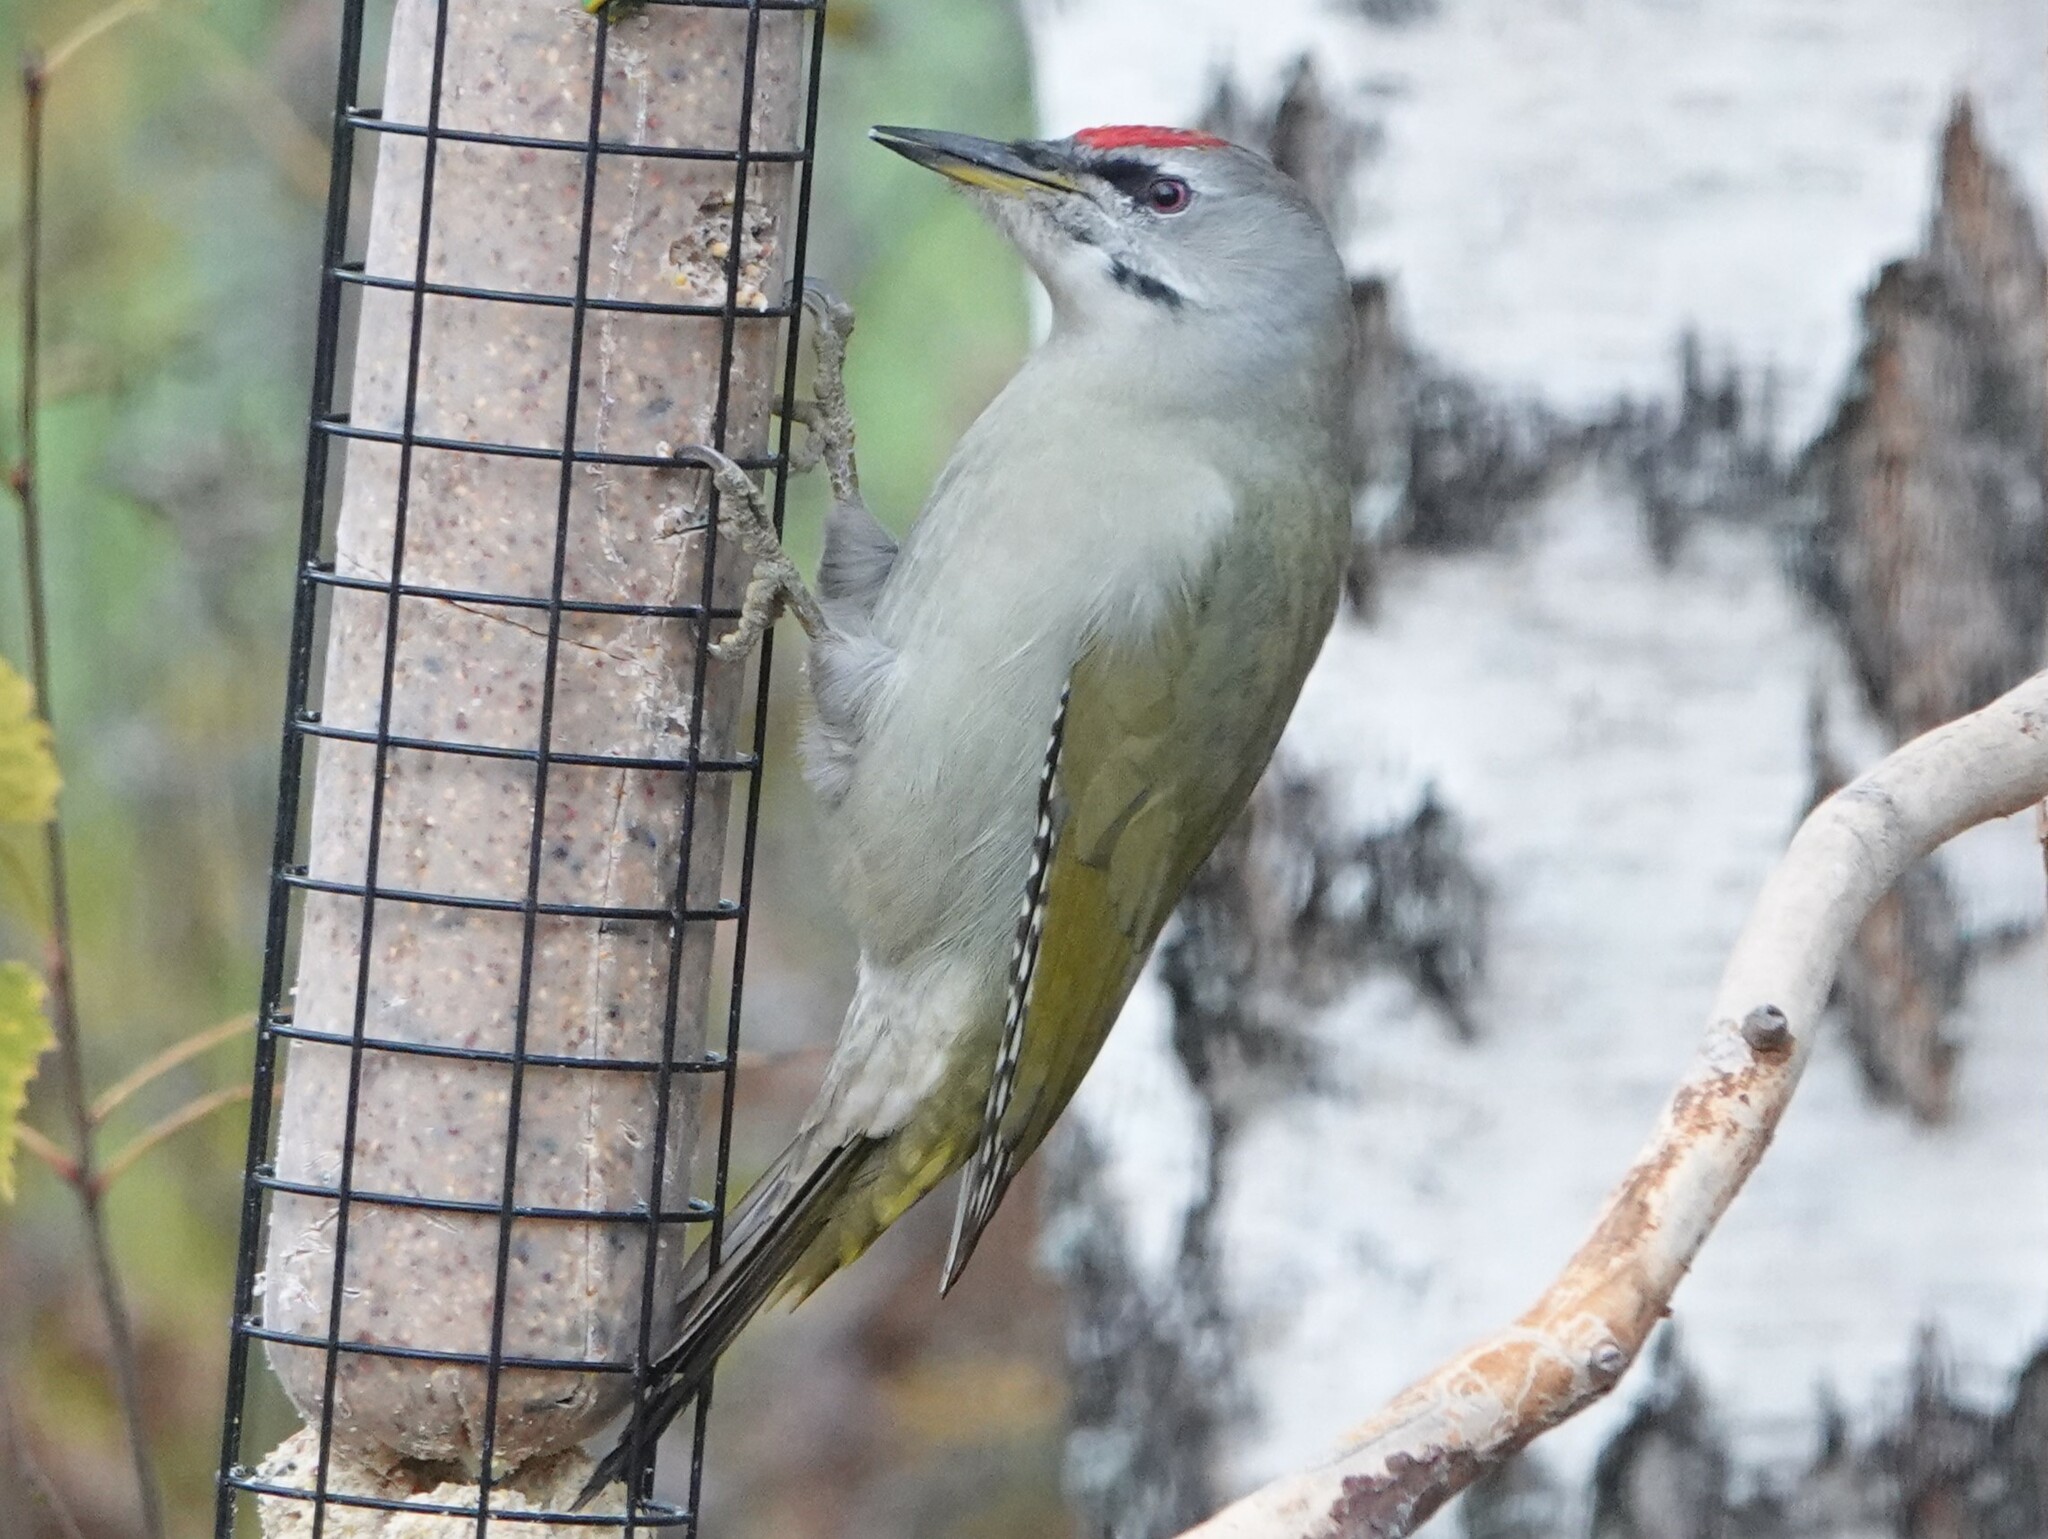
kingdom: Animalia
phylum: Chordata
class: Aves
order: Piciformes
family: Picidae
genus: Picus
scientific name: Picus canus
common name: Grey-headed woodpecker
